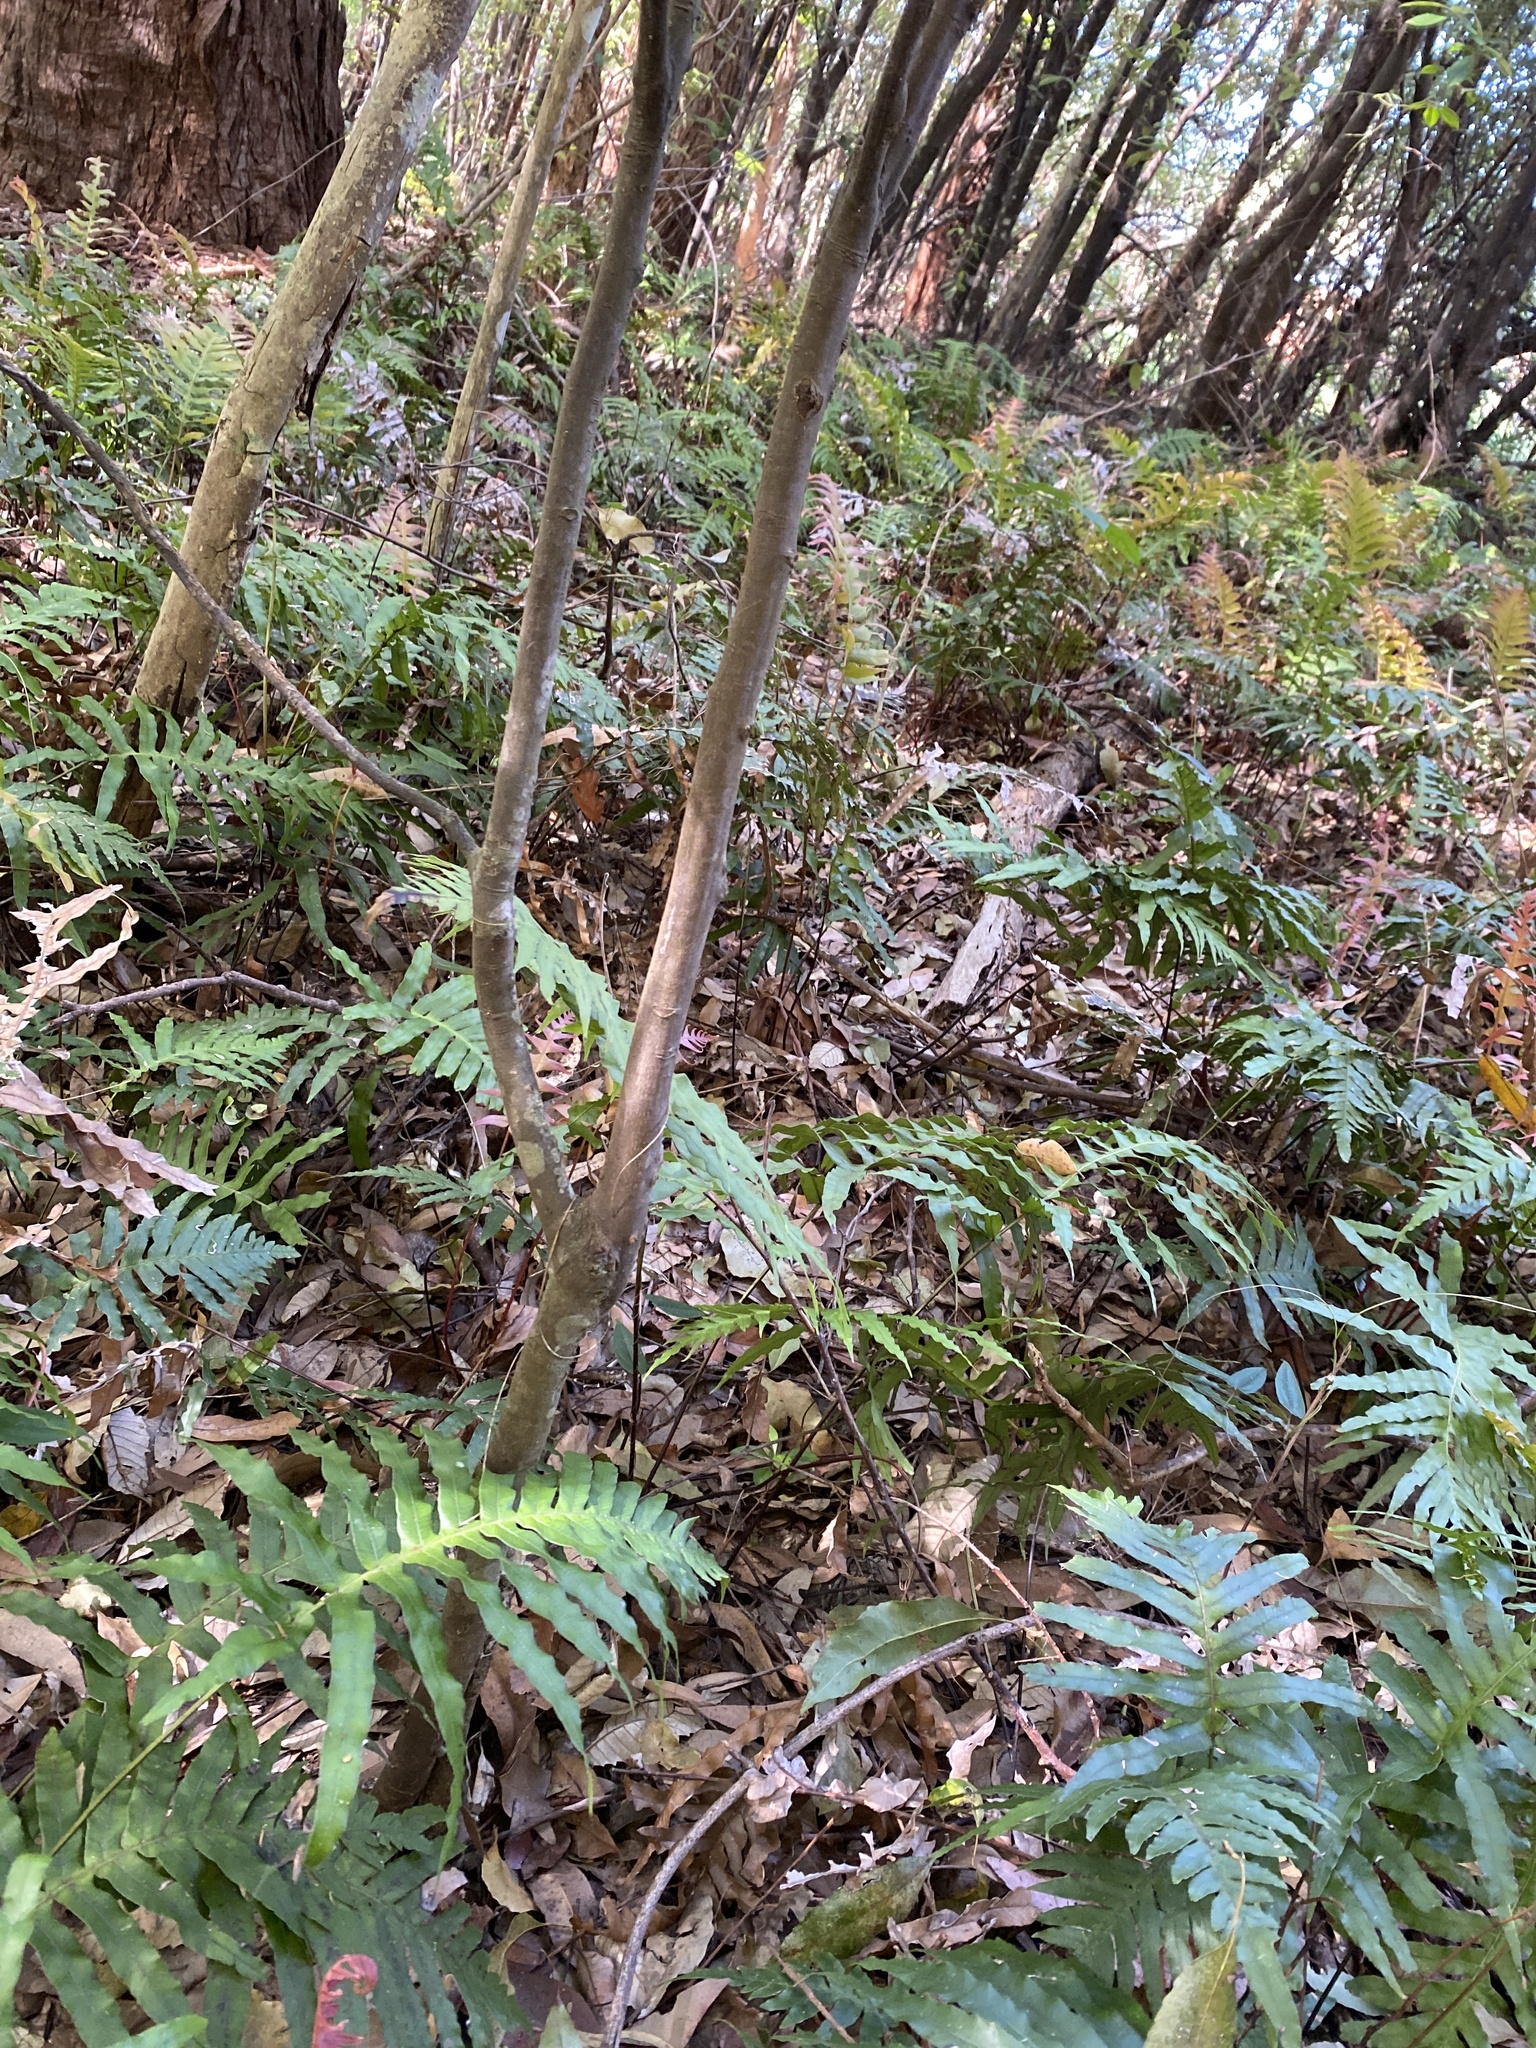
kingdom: Plantae
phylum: Tracheophyta
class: Magnoliopsida
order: Sapindales
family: Sapindaceae
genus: Guioa
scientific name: Guioa semiglauca
